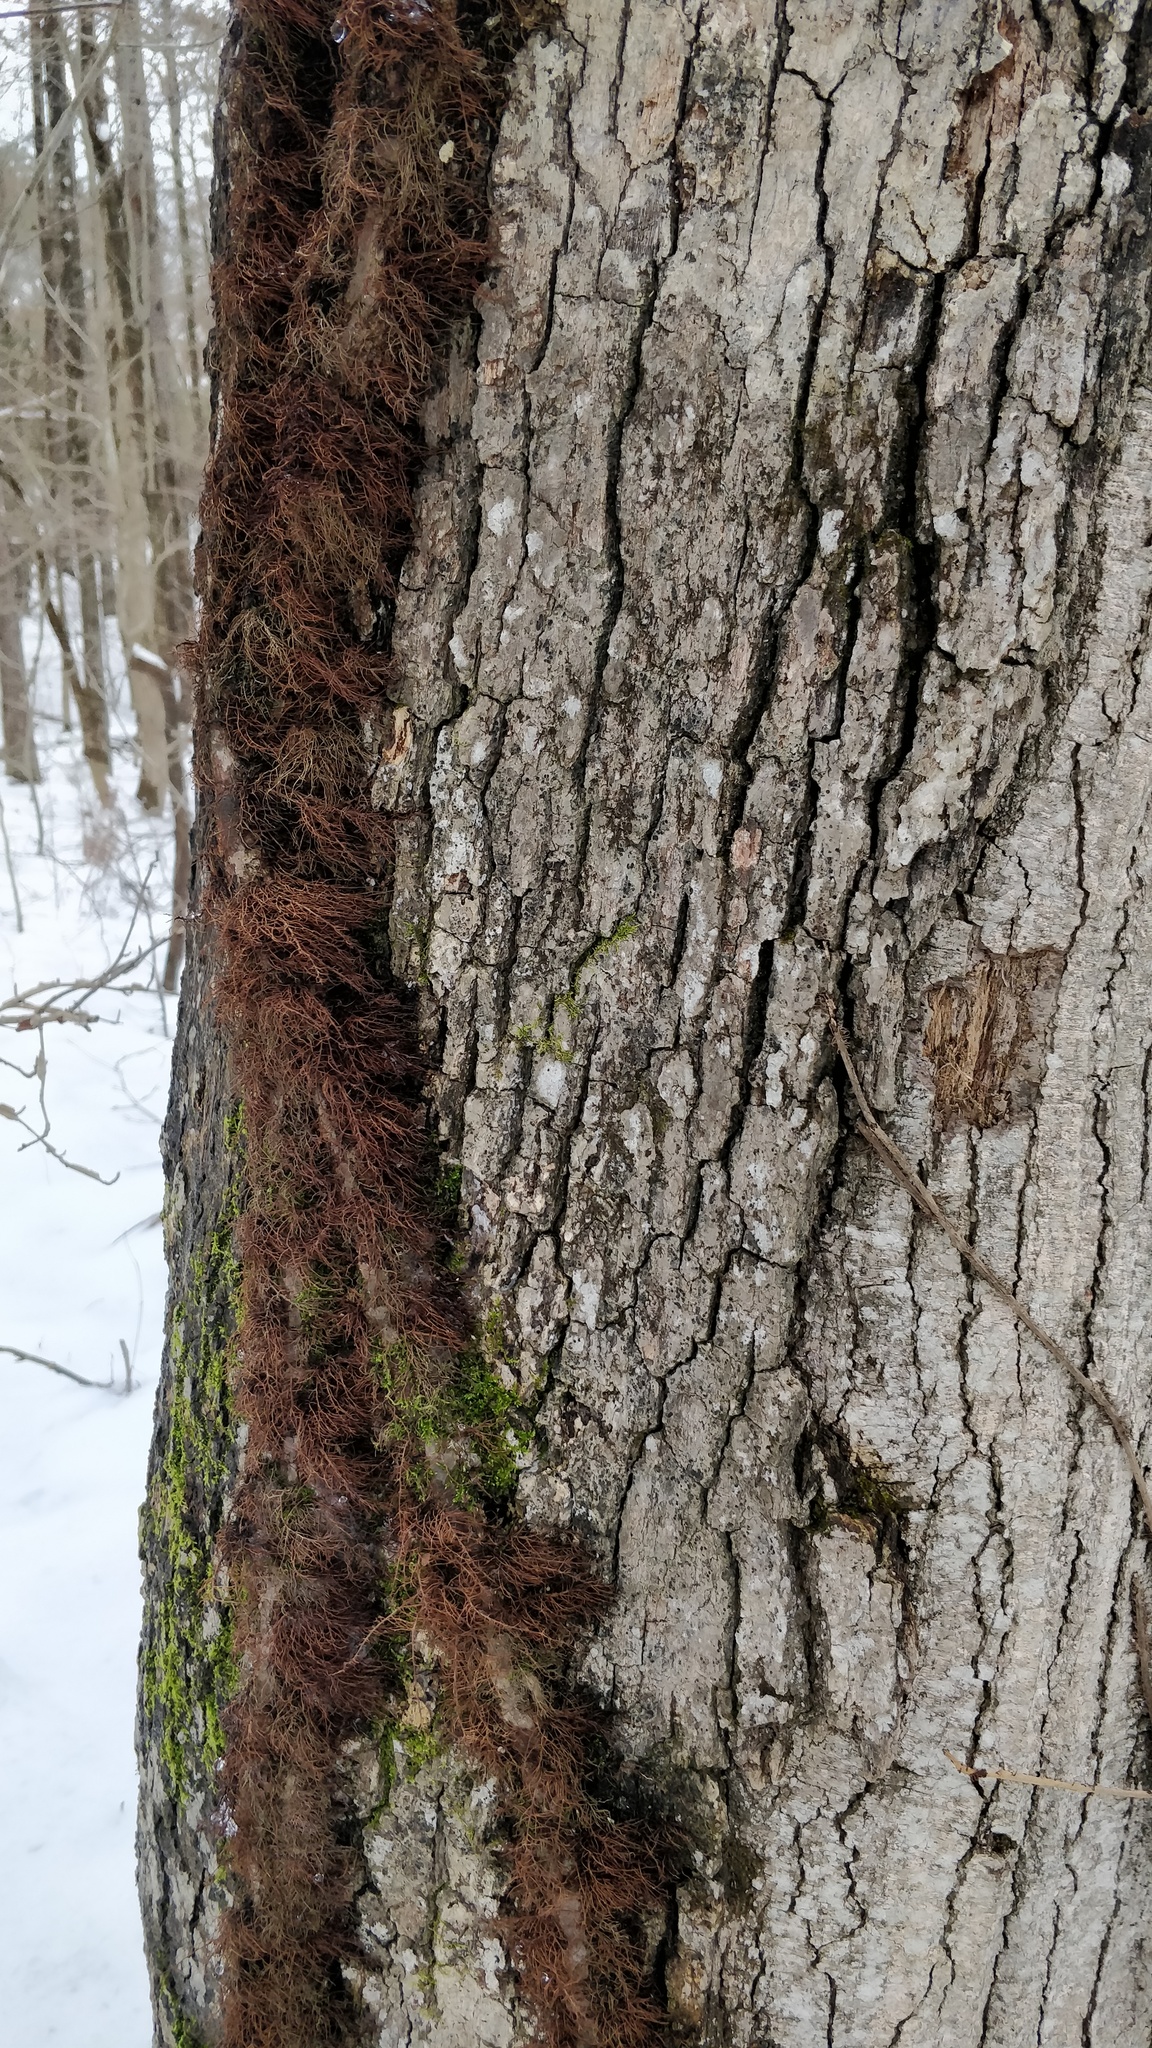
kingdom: Plantae
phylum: Tracheophyta
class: Magnoliopsida
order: Sapindales
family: Anacardiaceae
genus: Toxicodendron
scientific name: Toxicodendron radicans
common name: Poison ivy
